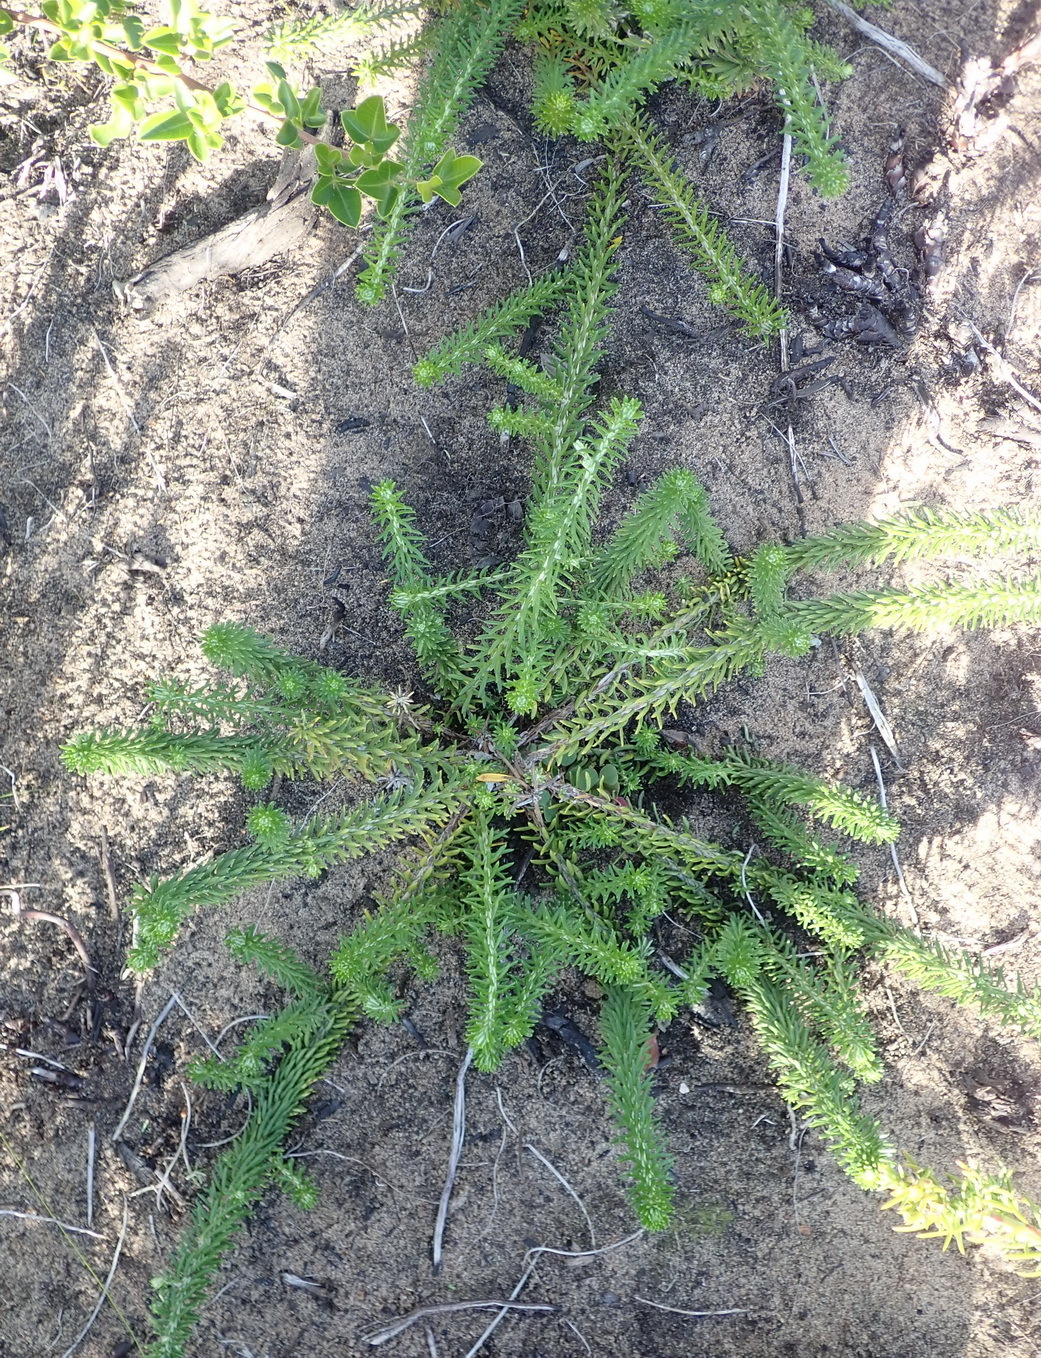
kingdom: Plantae
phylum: Tracheophyta
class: Magnoliopsida
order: Asterales
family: Asteraceae
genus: Helichrysum
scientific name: Helichrysum teretifolium
